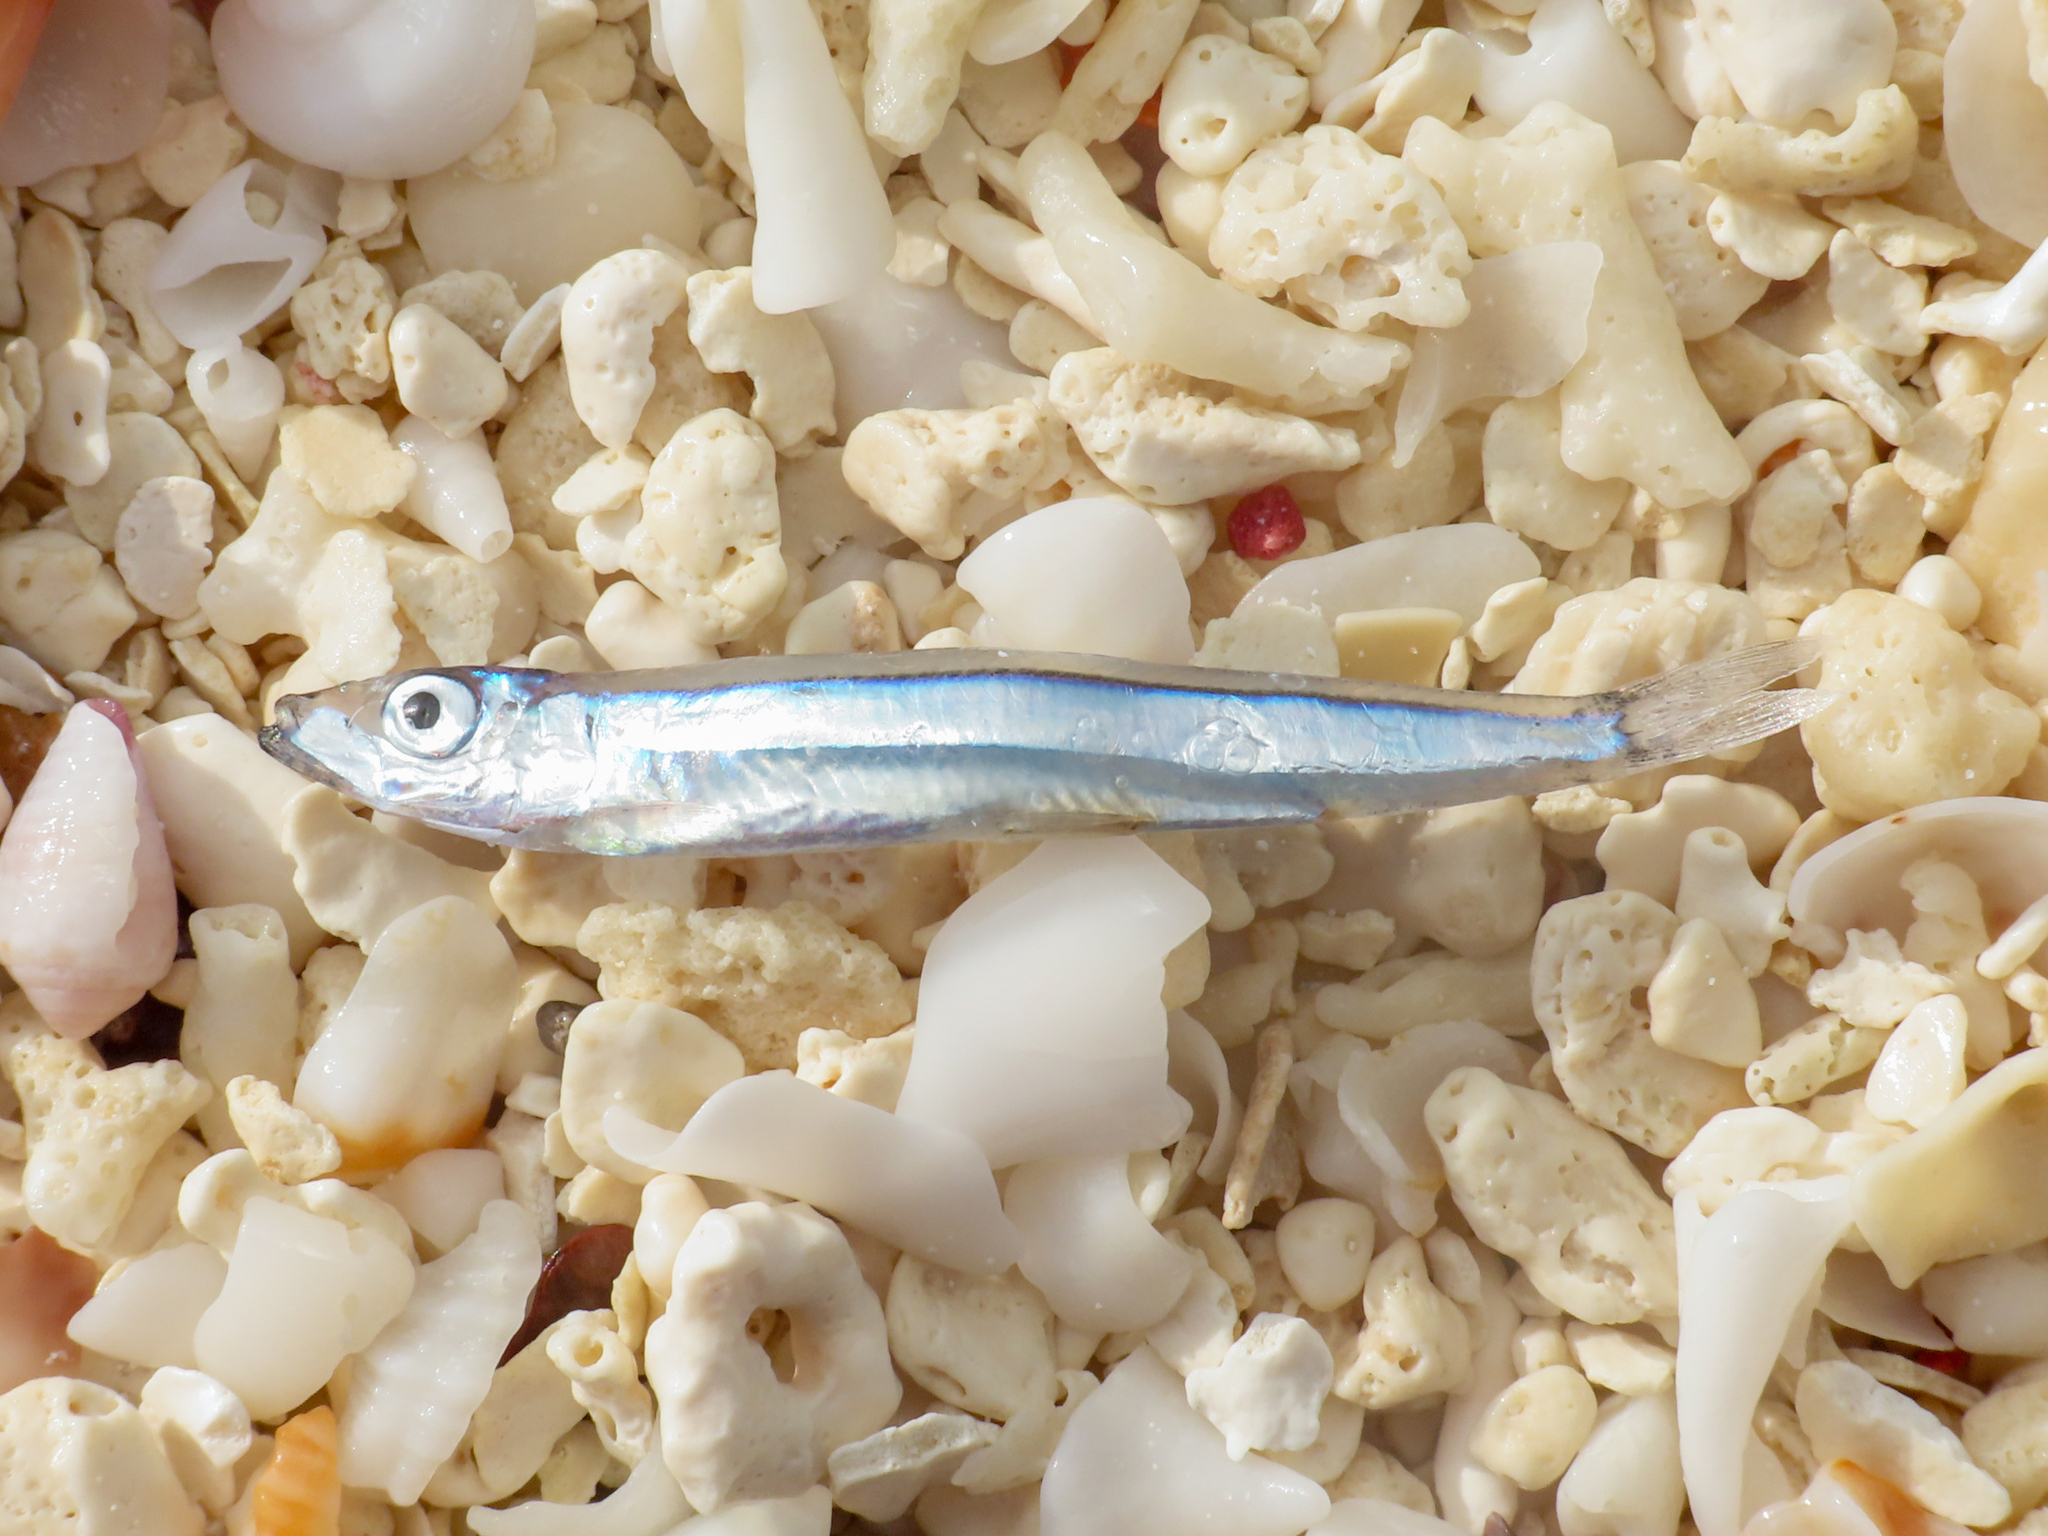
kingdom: Animalia
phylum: Chordata
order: Clupeiformes
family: Clupeidae
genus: Spratelloides
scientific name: Spratelloides gracilis
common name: Banded blue sprat
